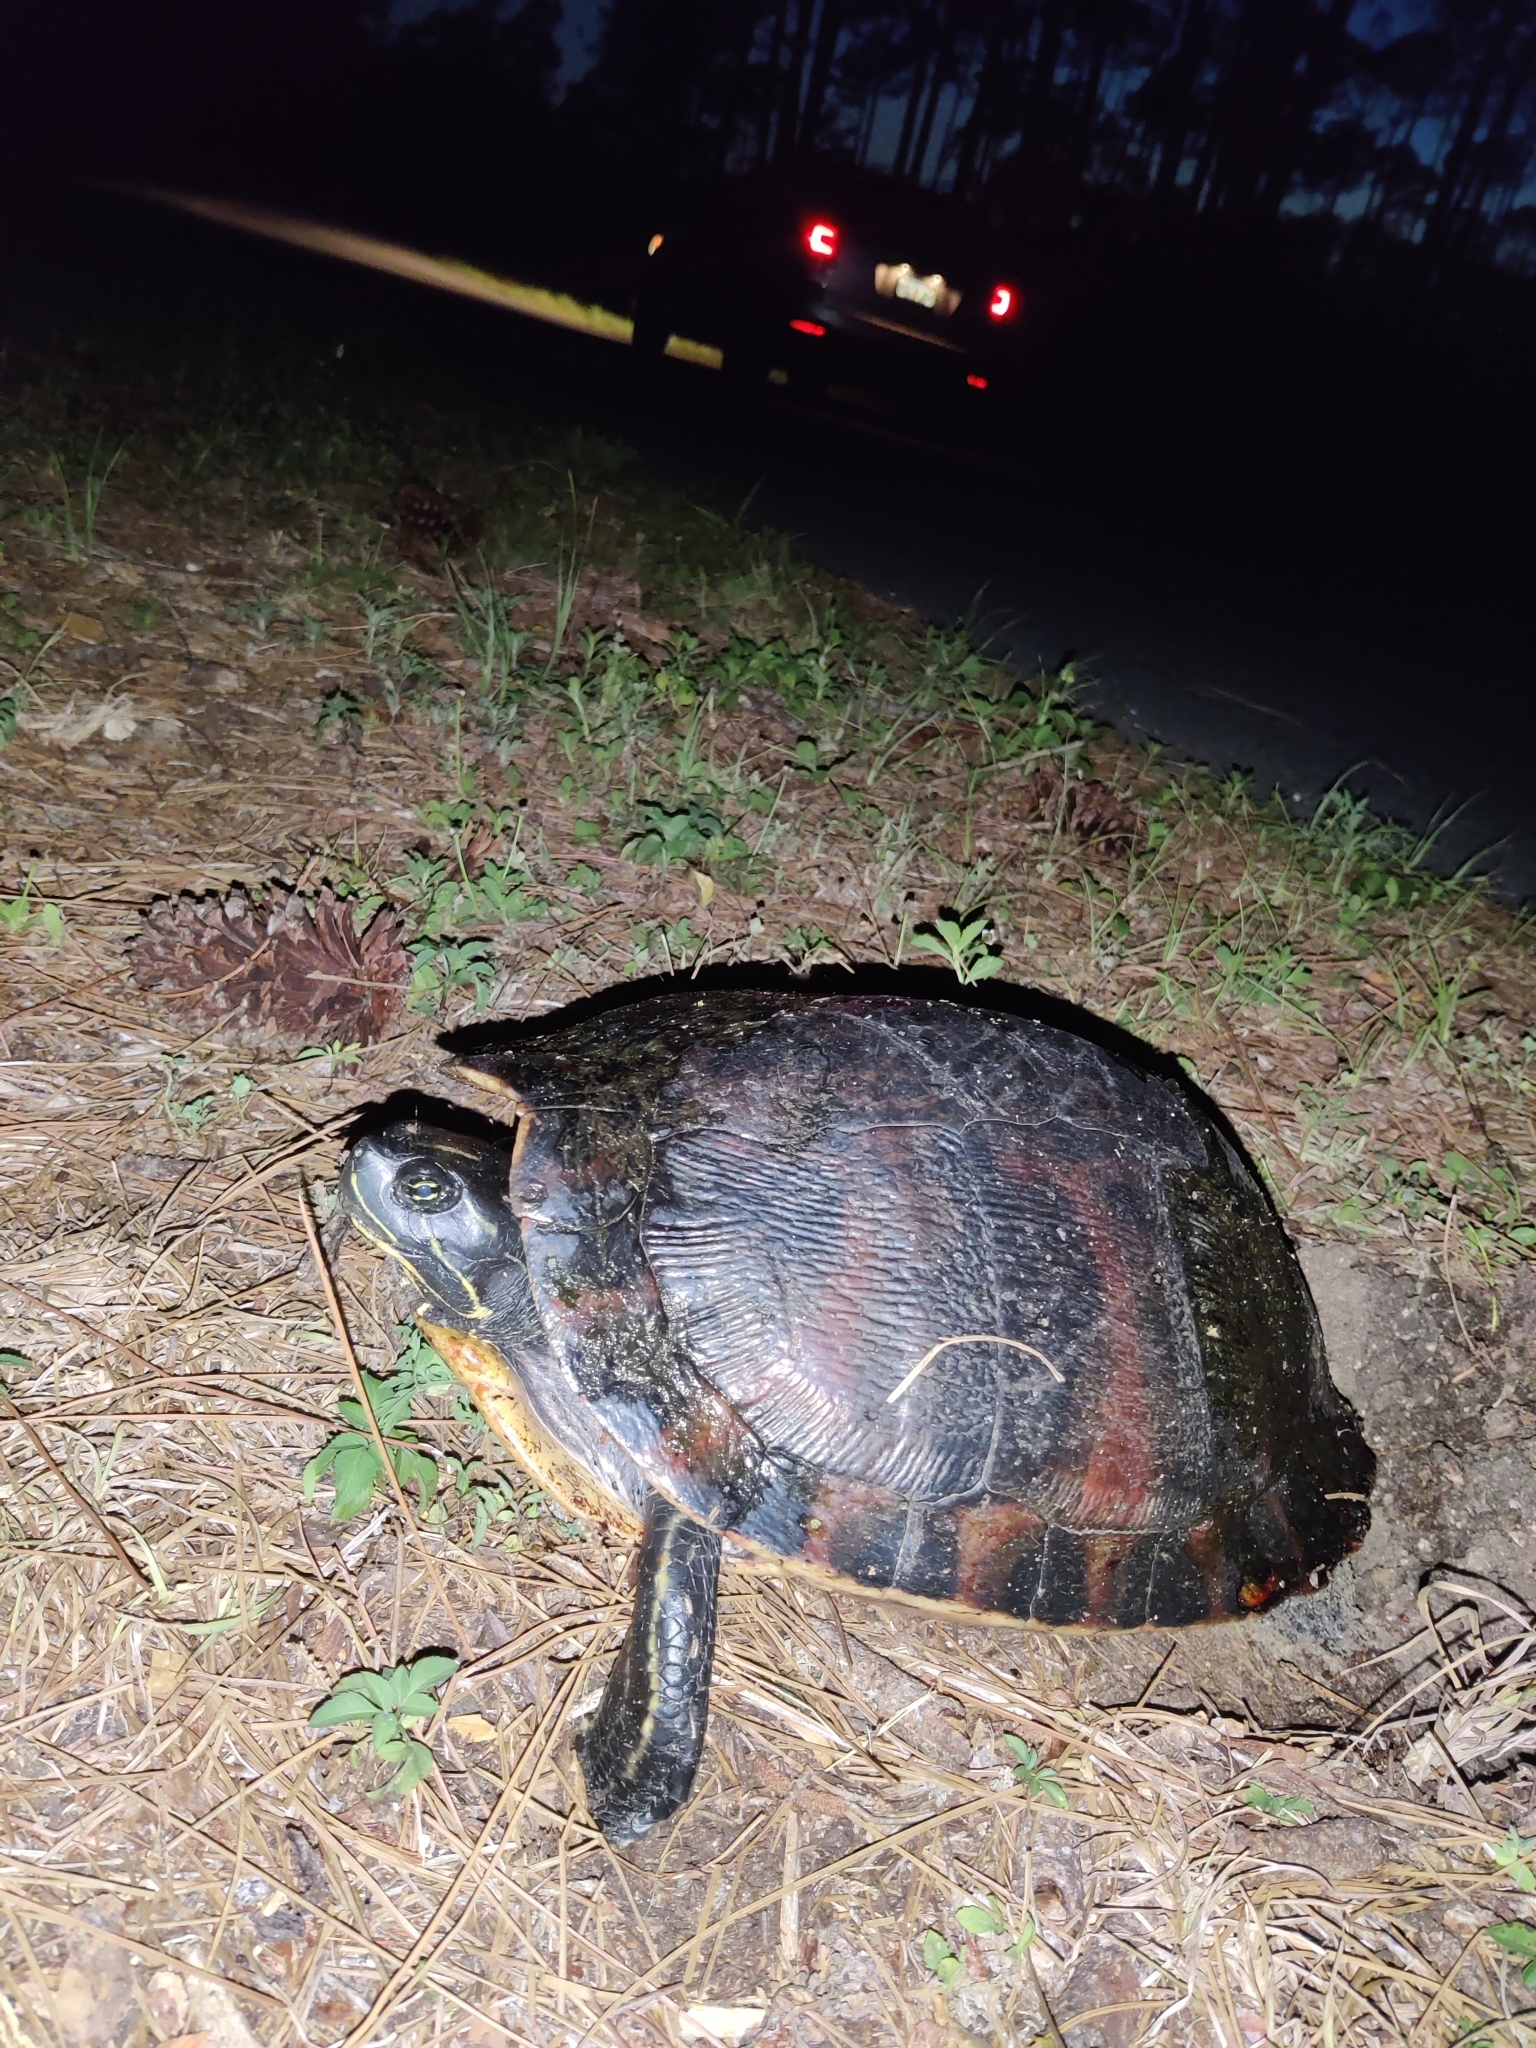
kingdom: Animalia
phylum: Chordata
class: Testudines
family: Emydidae
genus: Pseudemys
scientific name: Pseudemys nelsoni
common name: Florida red-bellied turtle
